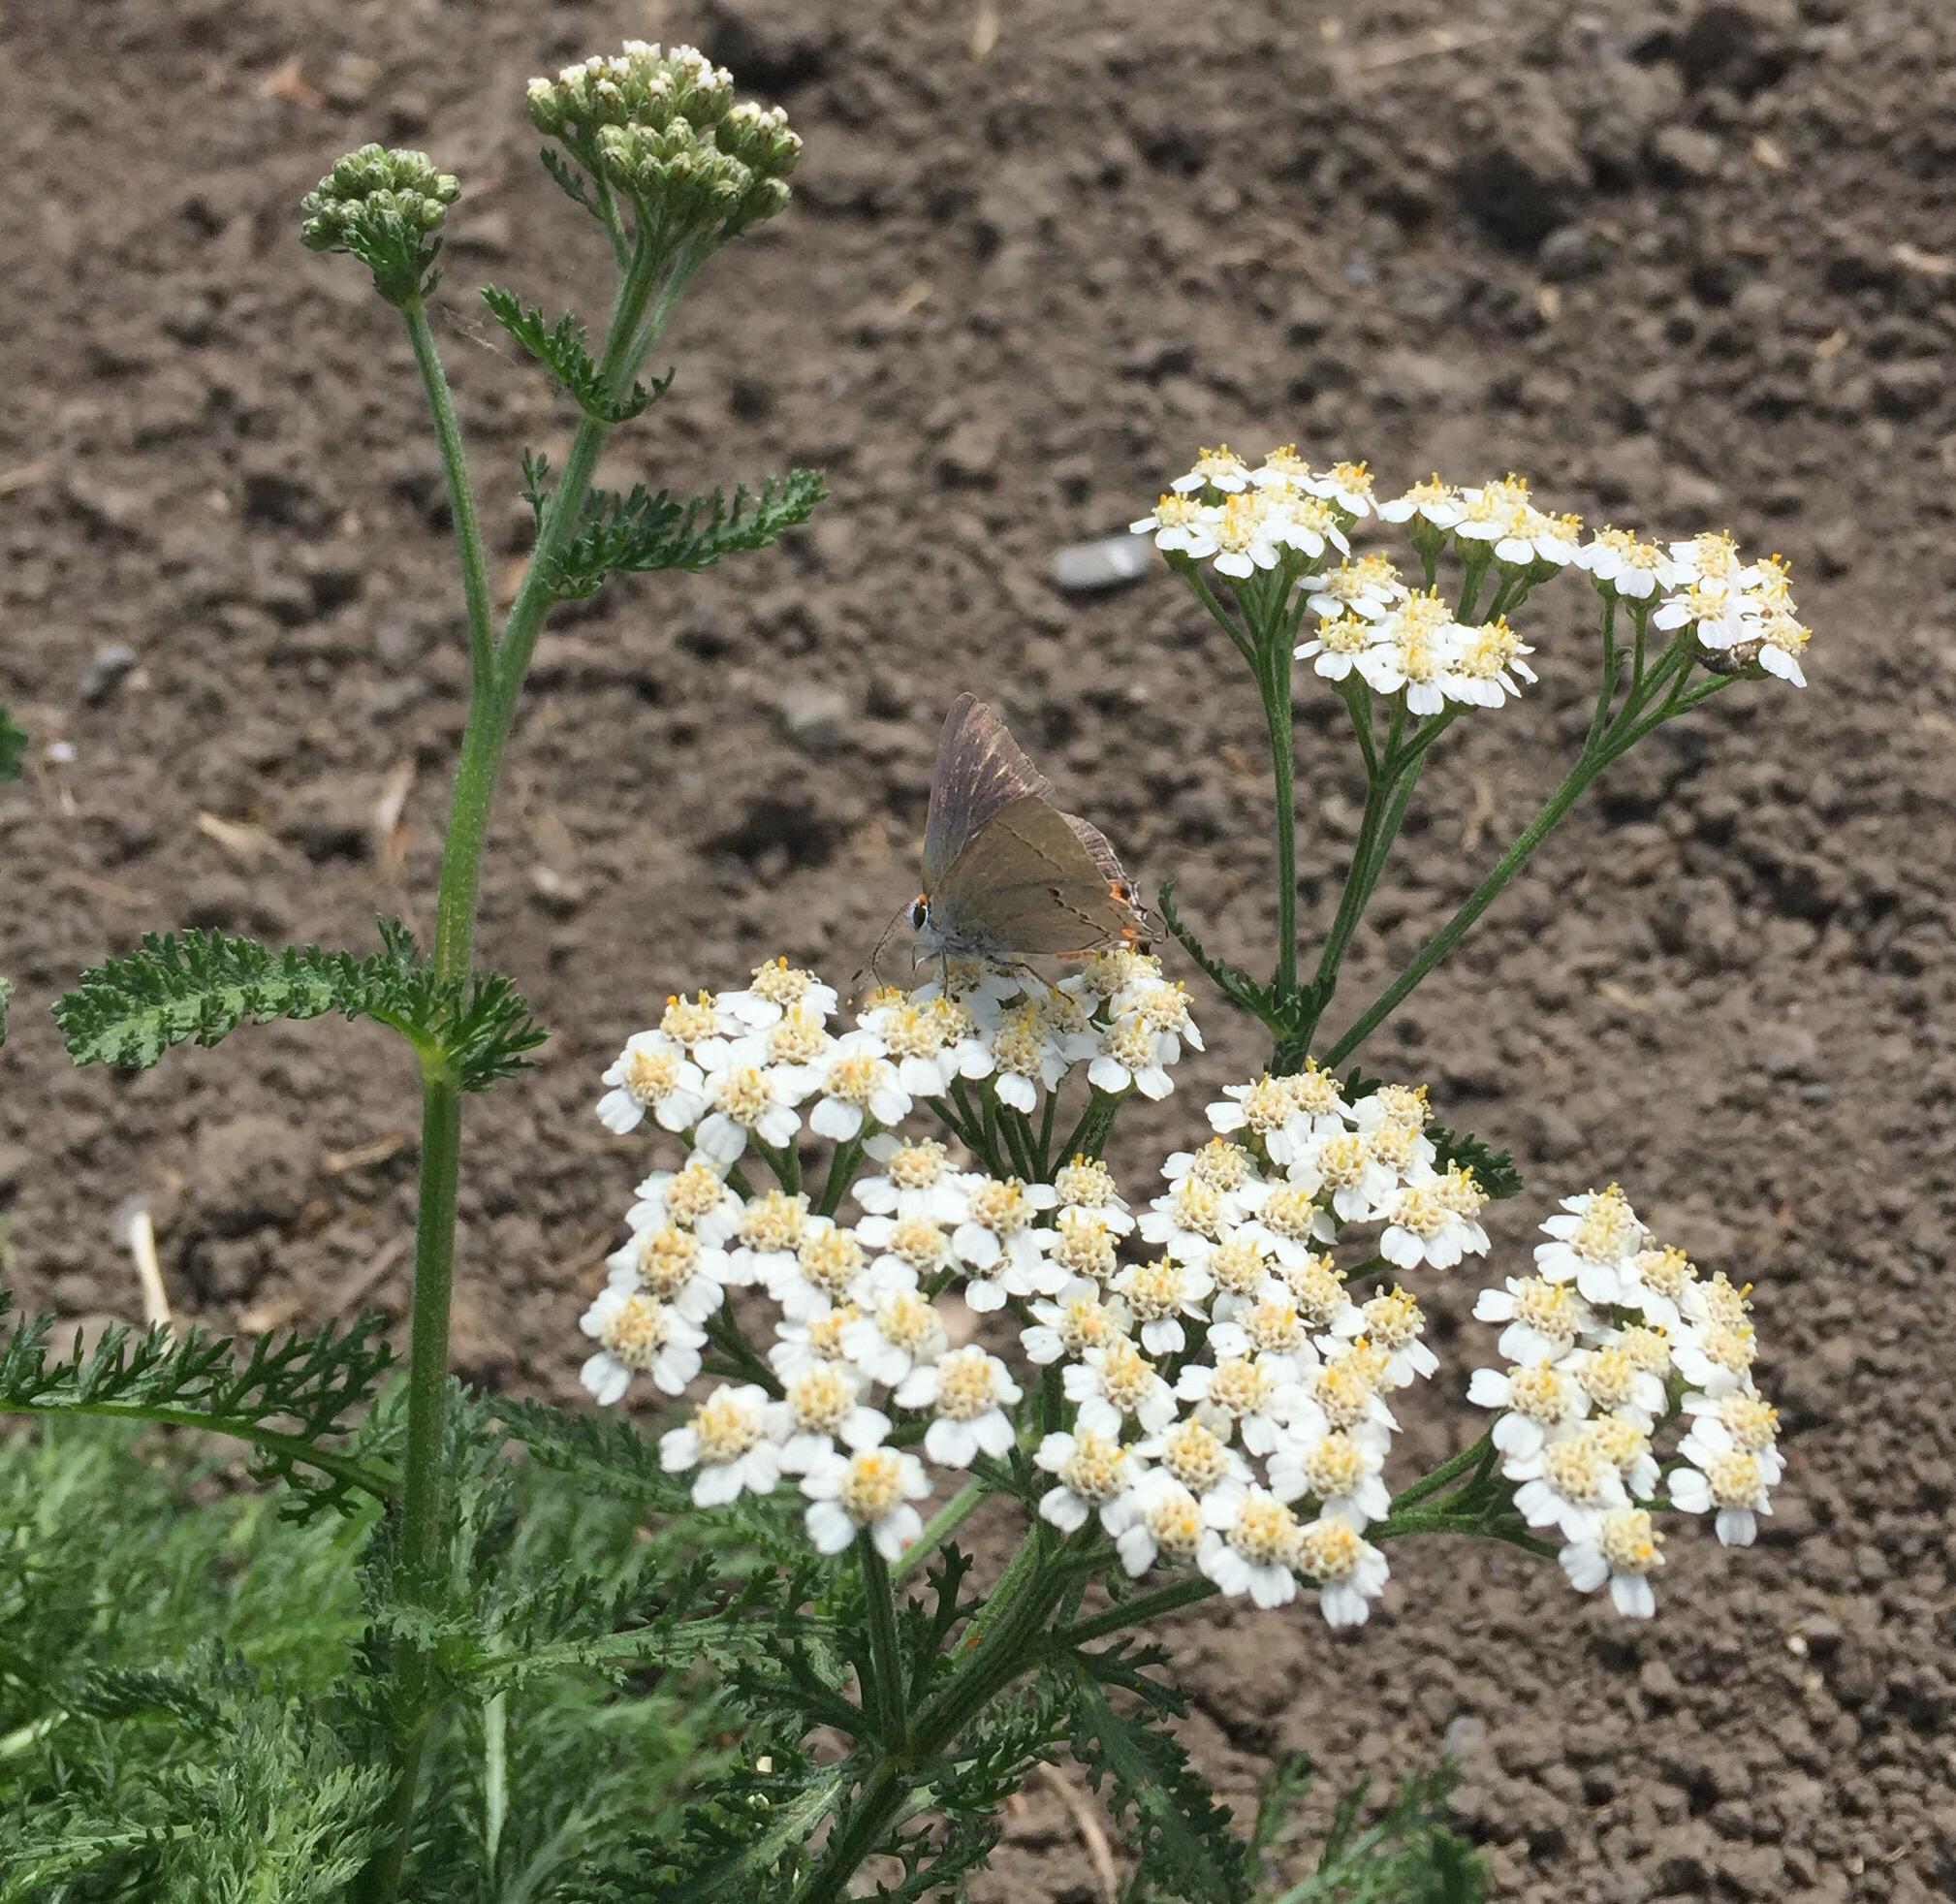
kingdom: Animalia
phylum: Arthropoda
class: Insecta
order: Lepidoptera
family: Lycaenidae
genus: Strymon
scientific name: Strymon melinus
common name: Gray hairstreak
